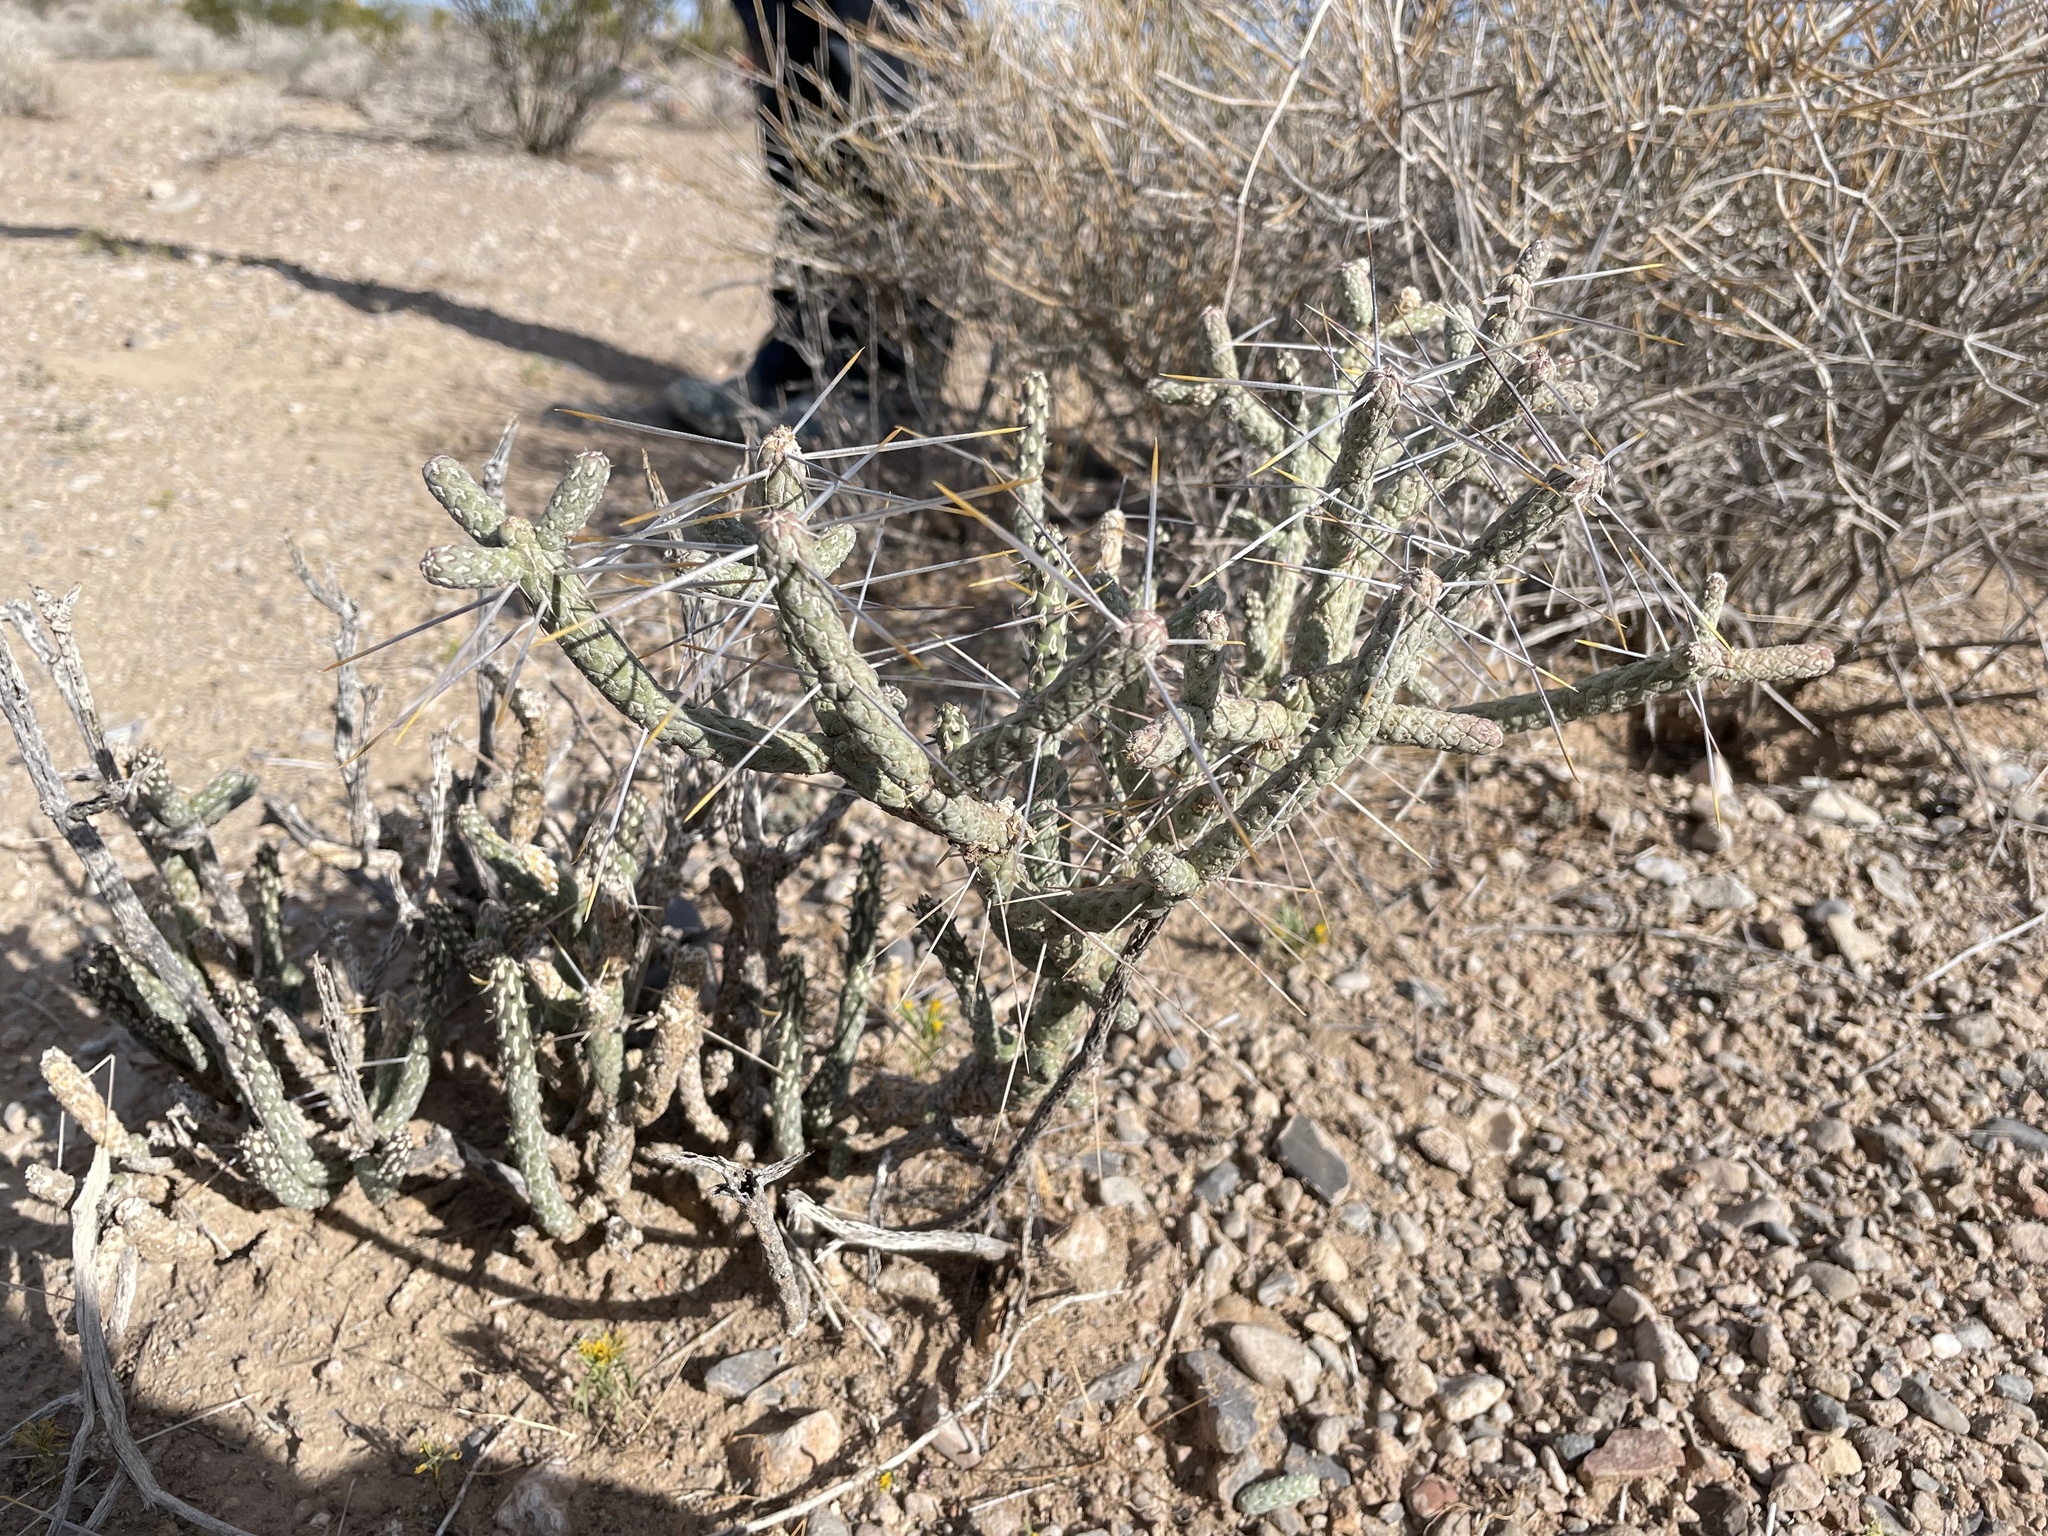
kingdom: Plantae
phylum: Tracheophyta
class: Magnoliopsida
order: Caryophyllales
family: Cactaceae
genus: Cylindropuntia
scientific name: Cylindropuntia ramosissima
